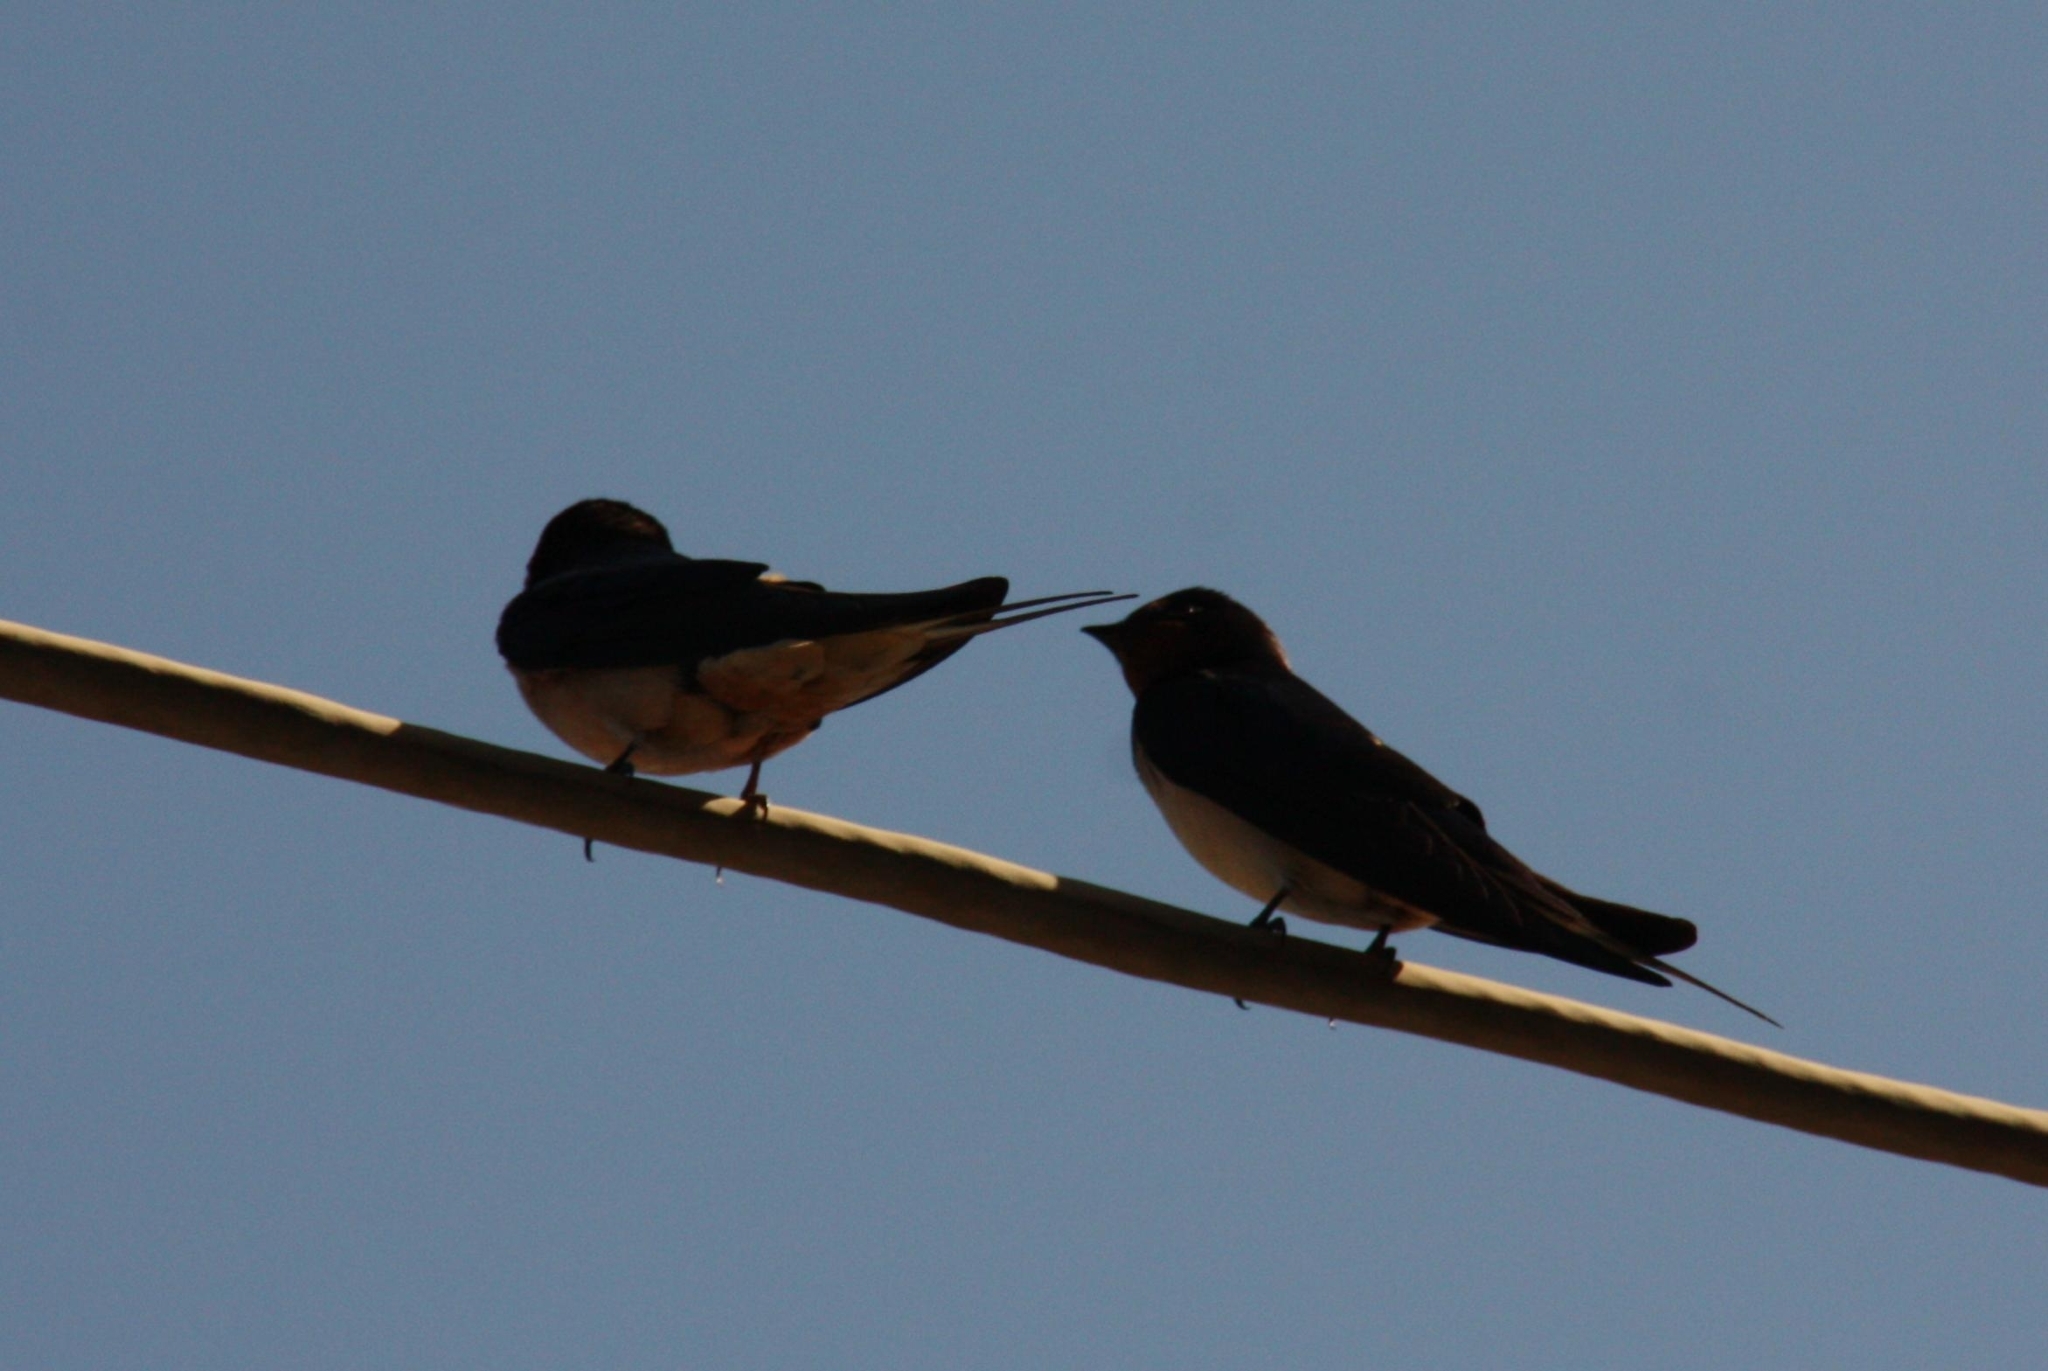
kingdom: Animalia
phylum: Chordata
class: Aves
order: Passeriformes
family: Hirundinidae
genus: Hirundo
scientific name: Hirundo rustica
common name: Barn swallow
